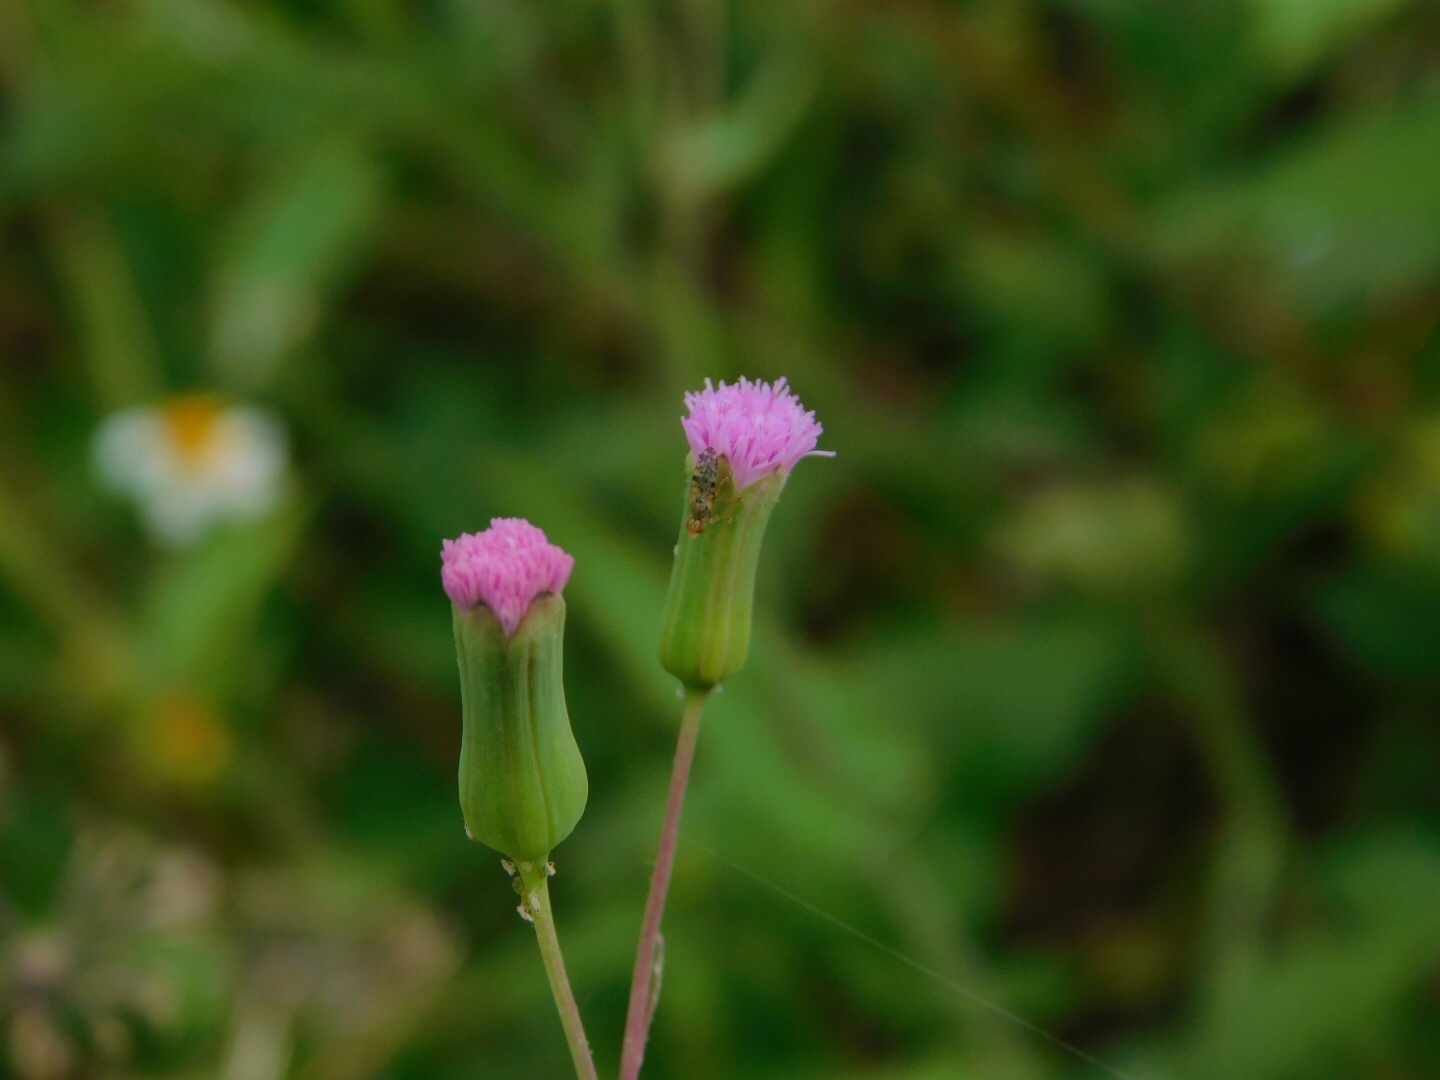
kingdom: Animalia
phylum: Arthropoda
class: Insecta
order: Diptera
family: Tephritidae
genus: Dioxyna
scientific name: Dioxyna picciola
